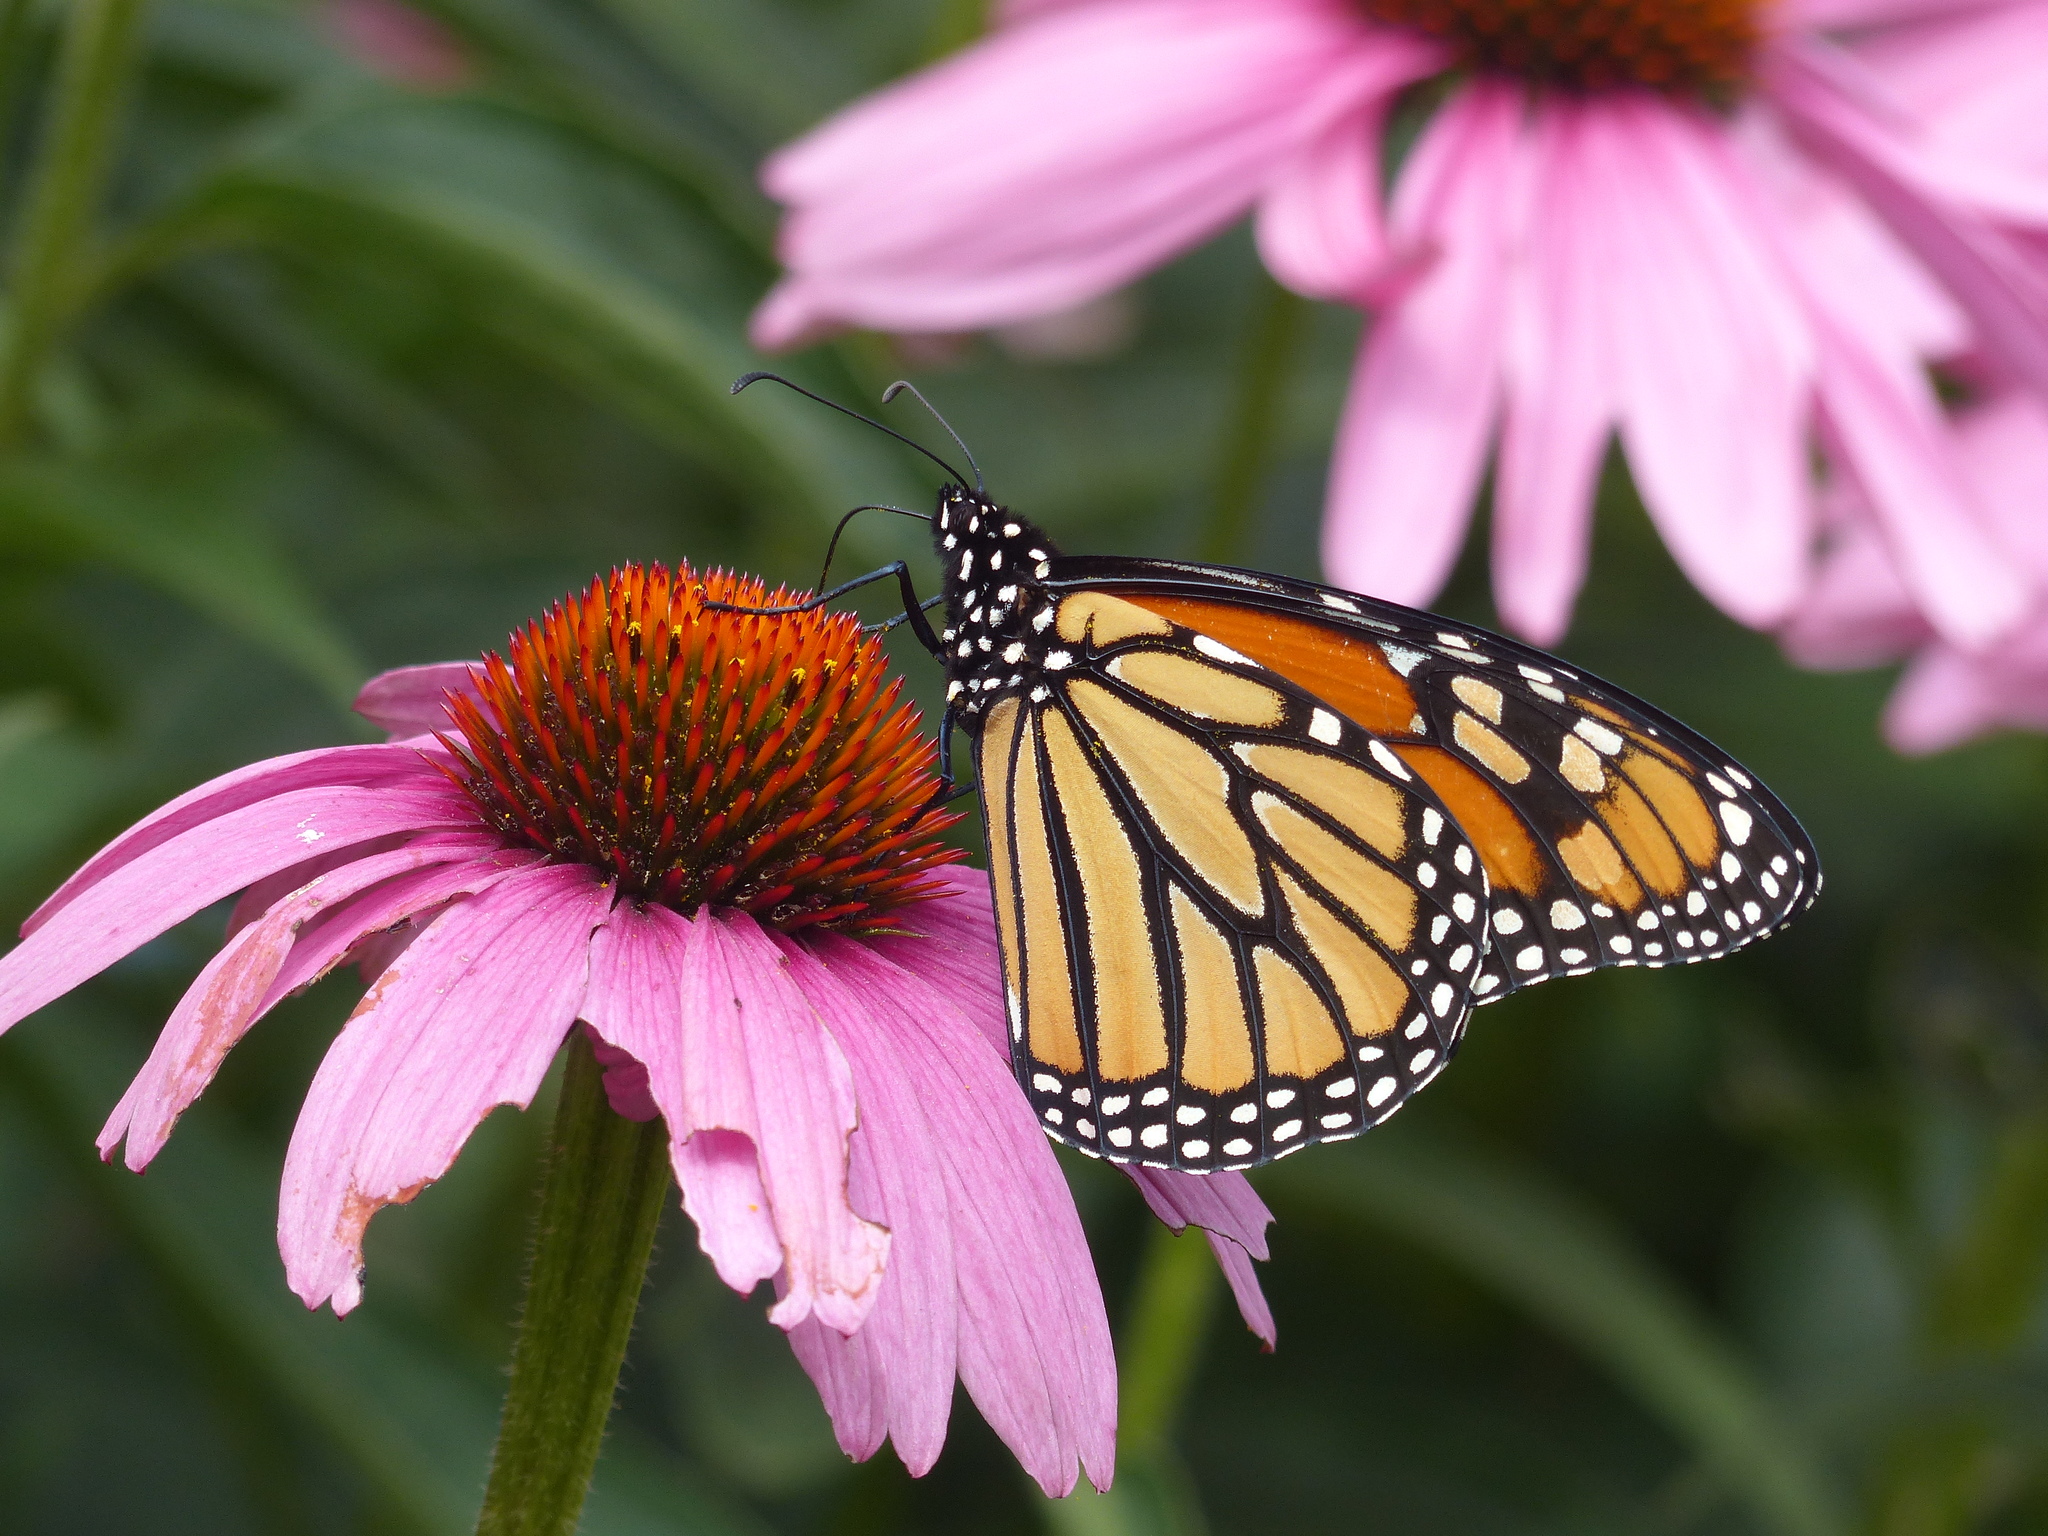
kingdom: Animalia
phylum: Arthropoda
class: Insecta
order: Lepidoptera
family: Nymphalidae
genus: Danaus
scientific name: Danaus plexippus
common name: Monarch
